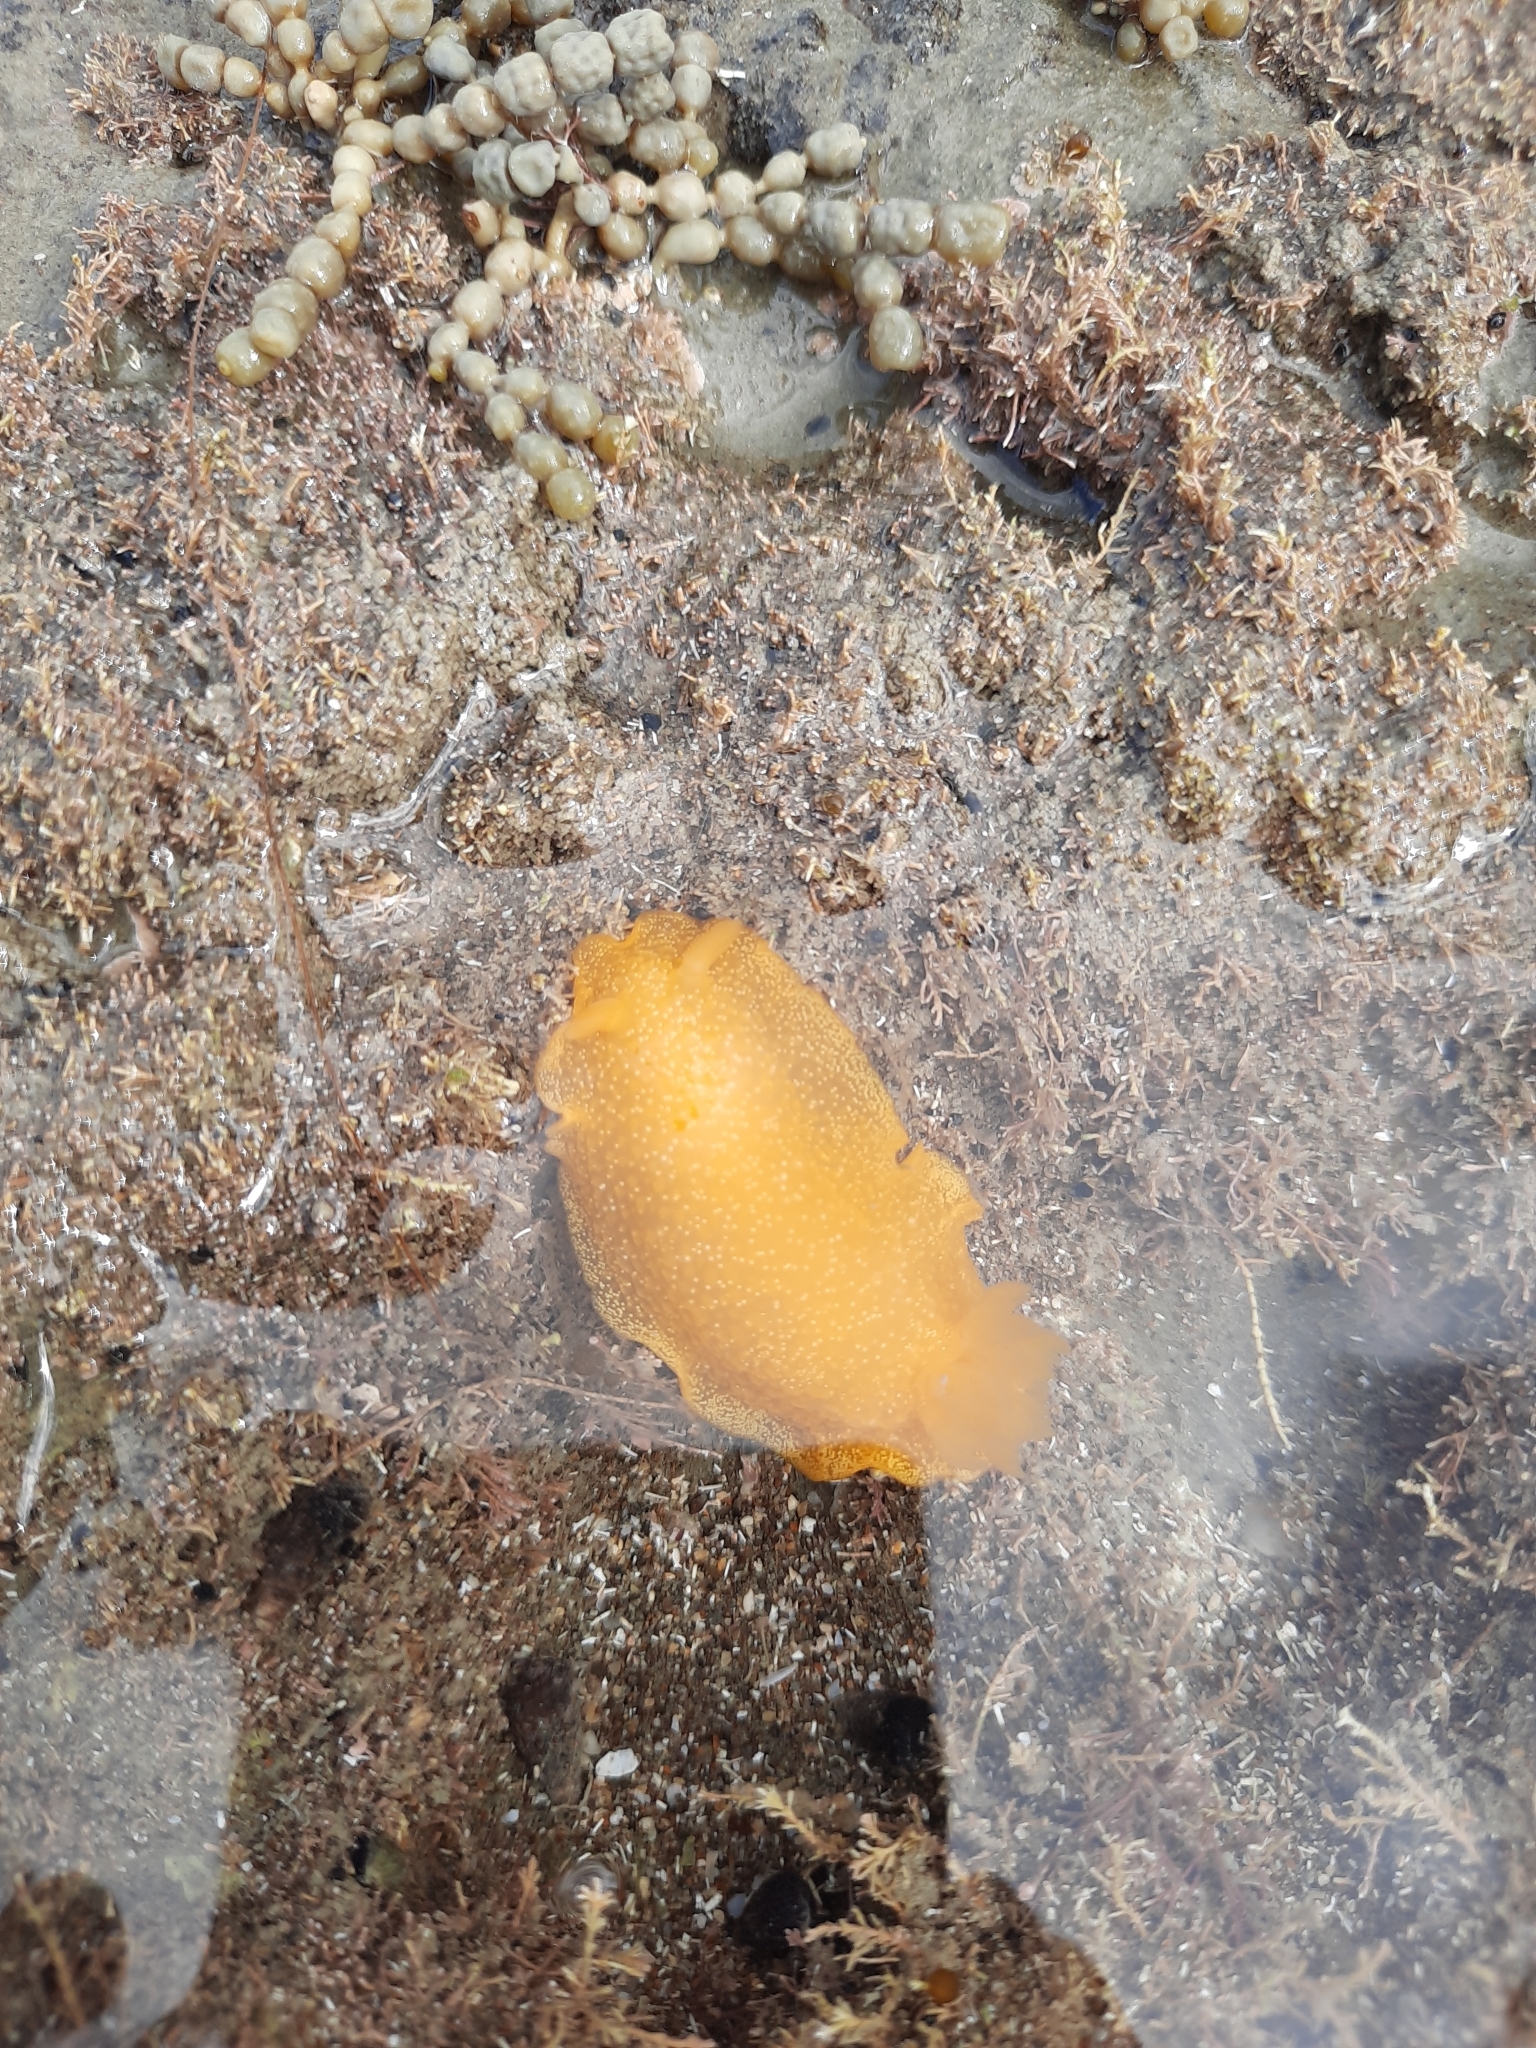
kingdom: Animalia
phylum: Mollusca
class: Gastropoda
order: Nudibranchia
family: Dendrodorididae
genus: Dendrodoris
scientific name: Dendrodoris citrina
